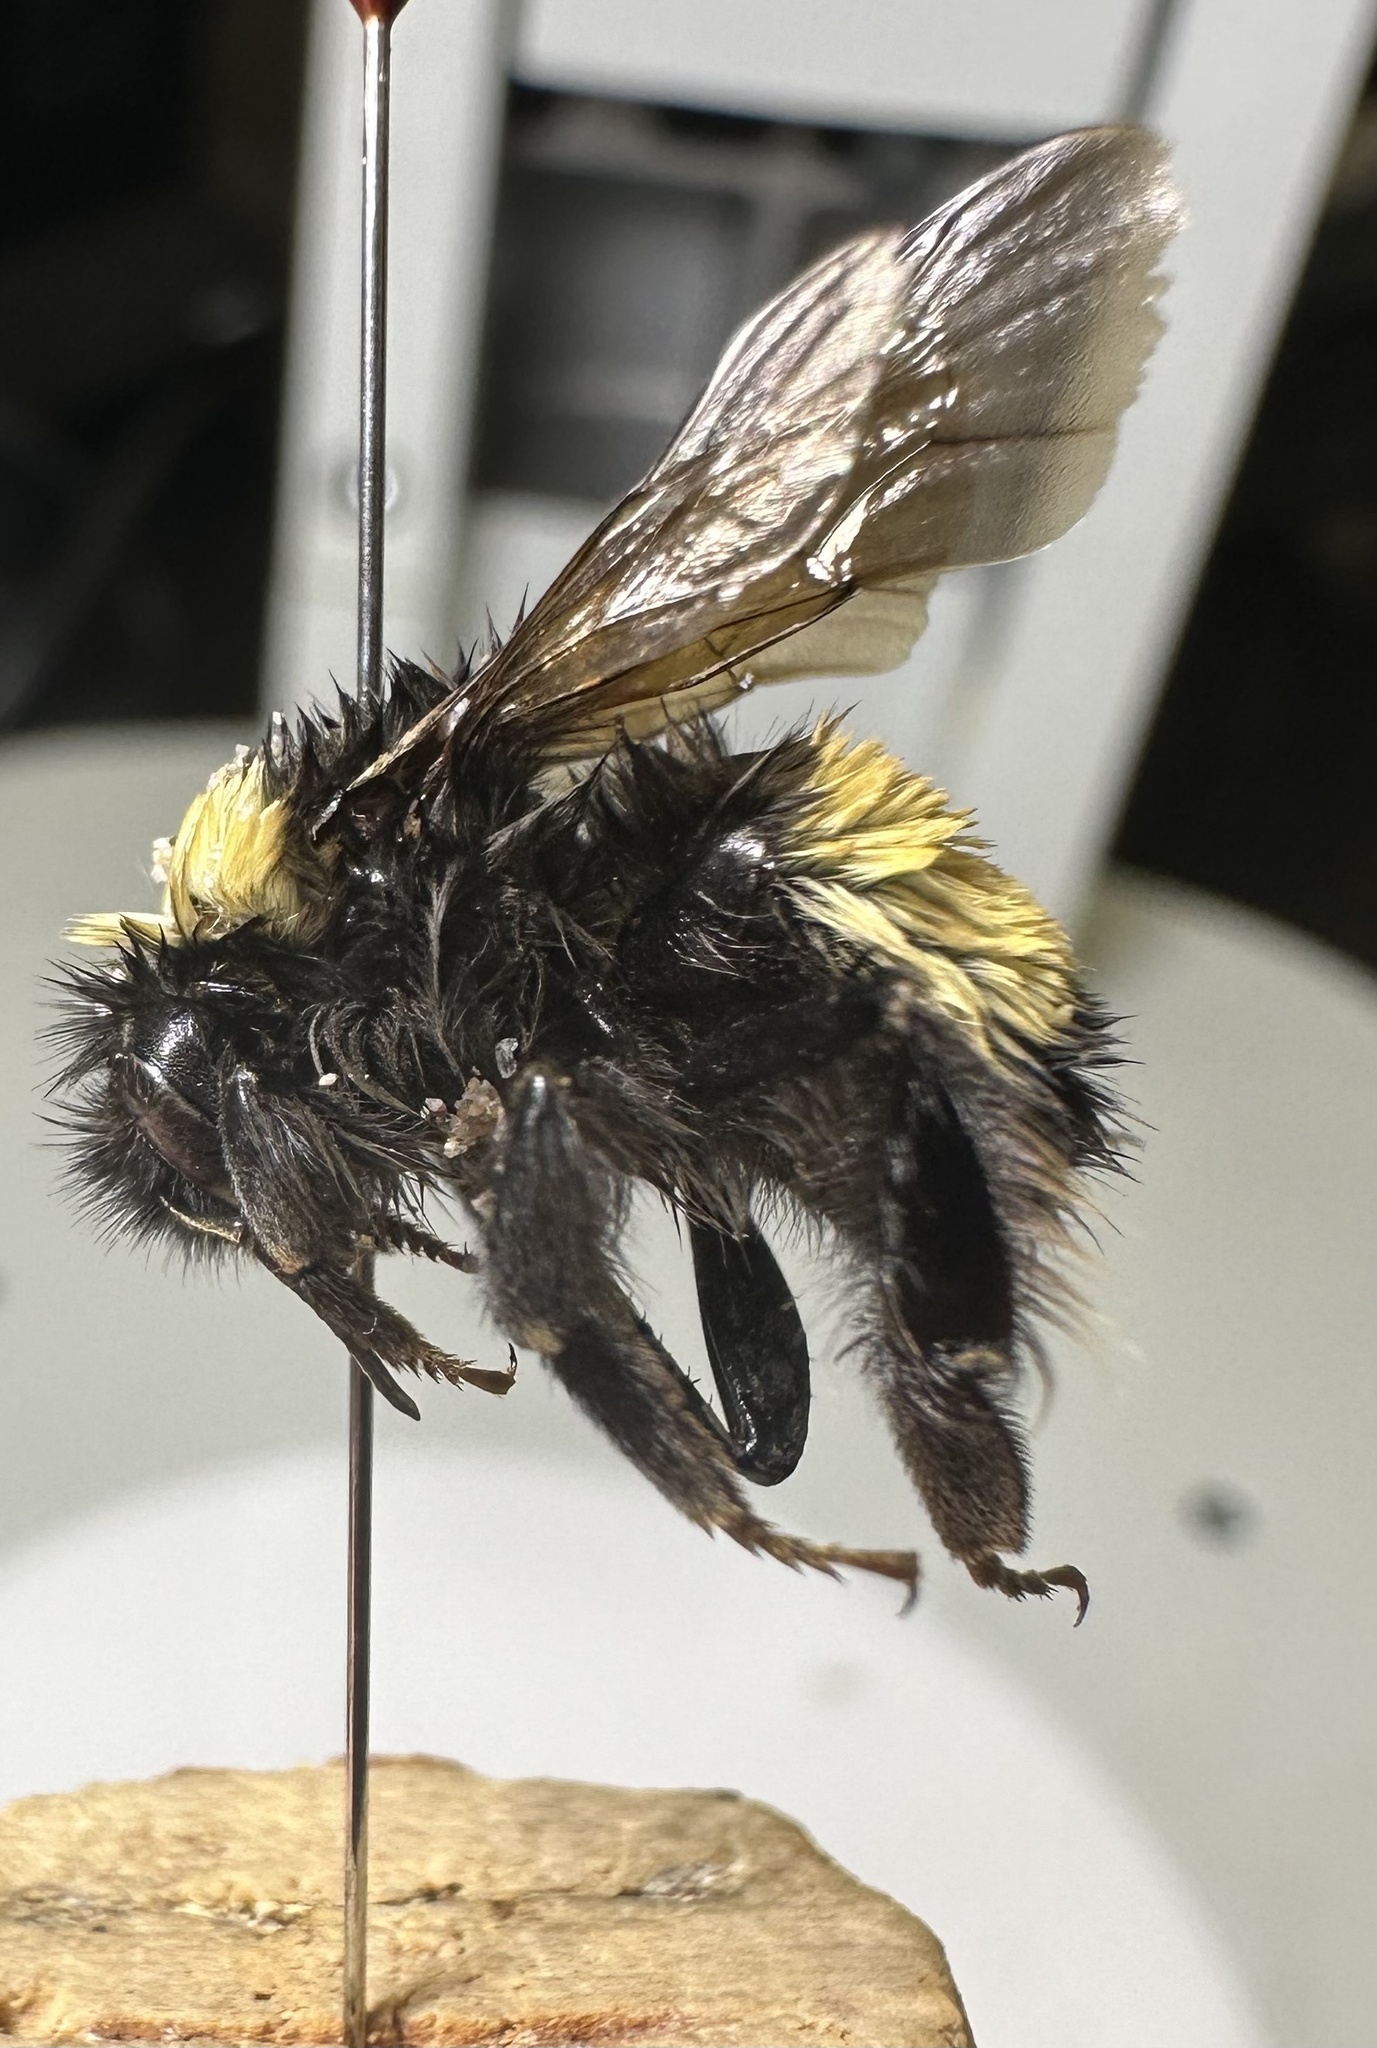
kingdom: Animalia
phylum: Arthropoda
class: Insecta
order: Hymenoptera
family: Apidae
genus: Bombus
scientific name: Bombus terricola
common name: Yellow-banded bumble bee
